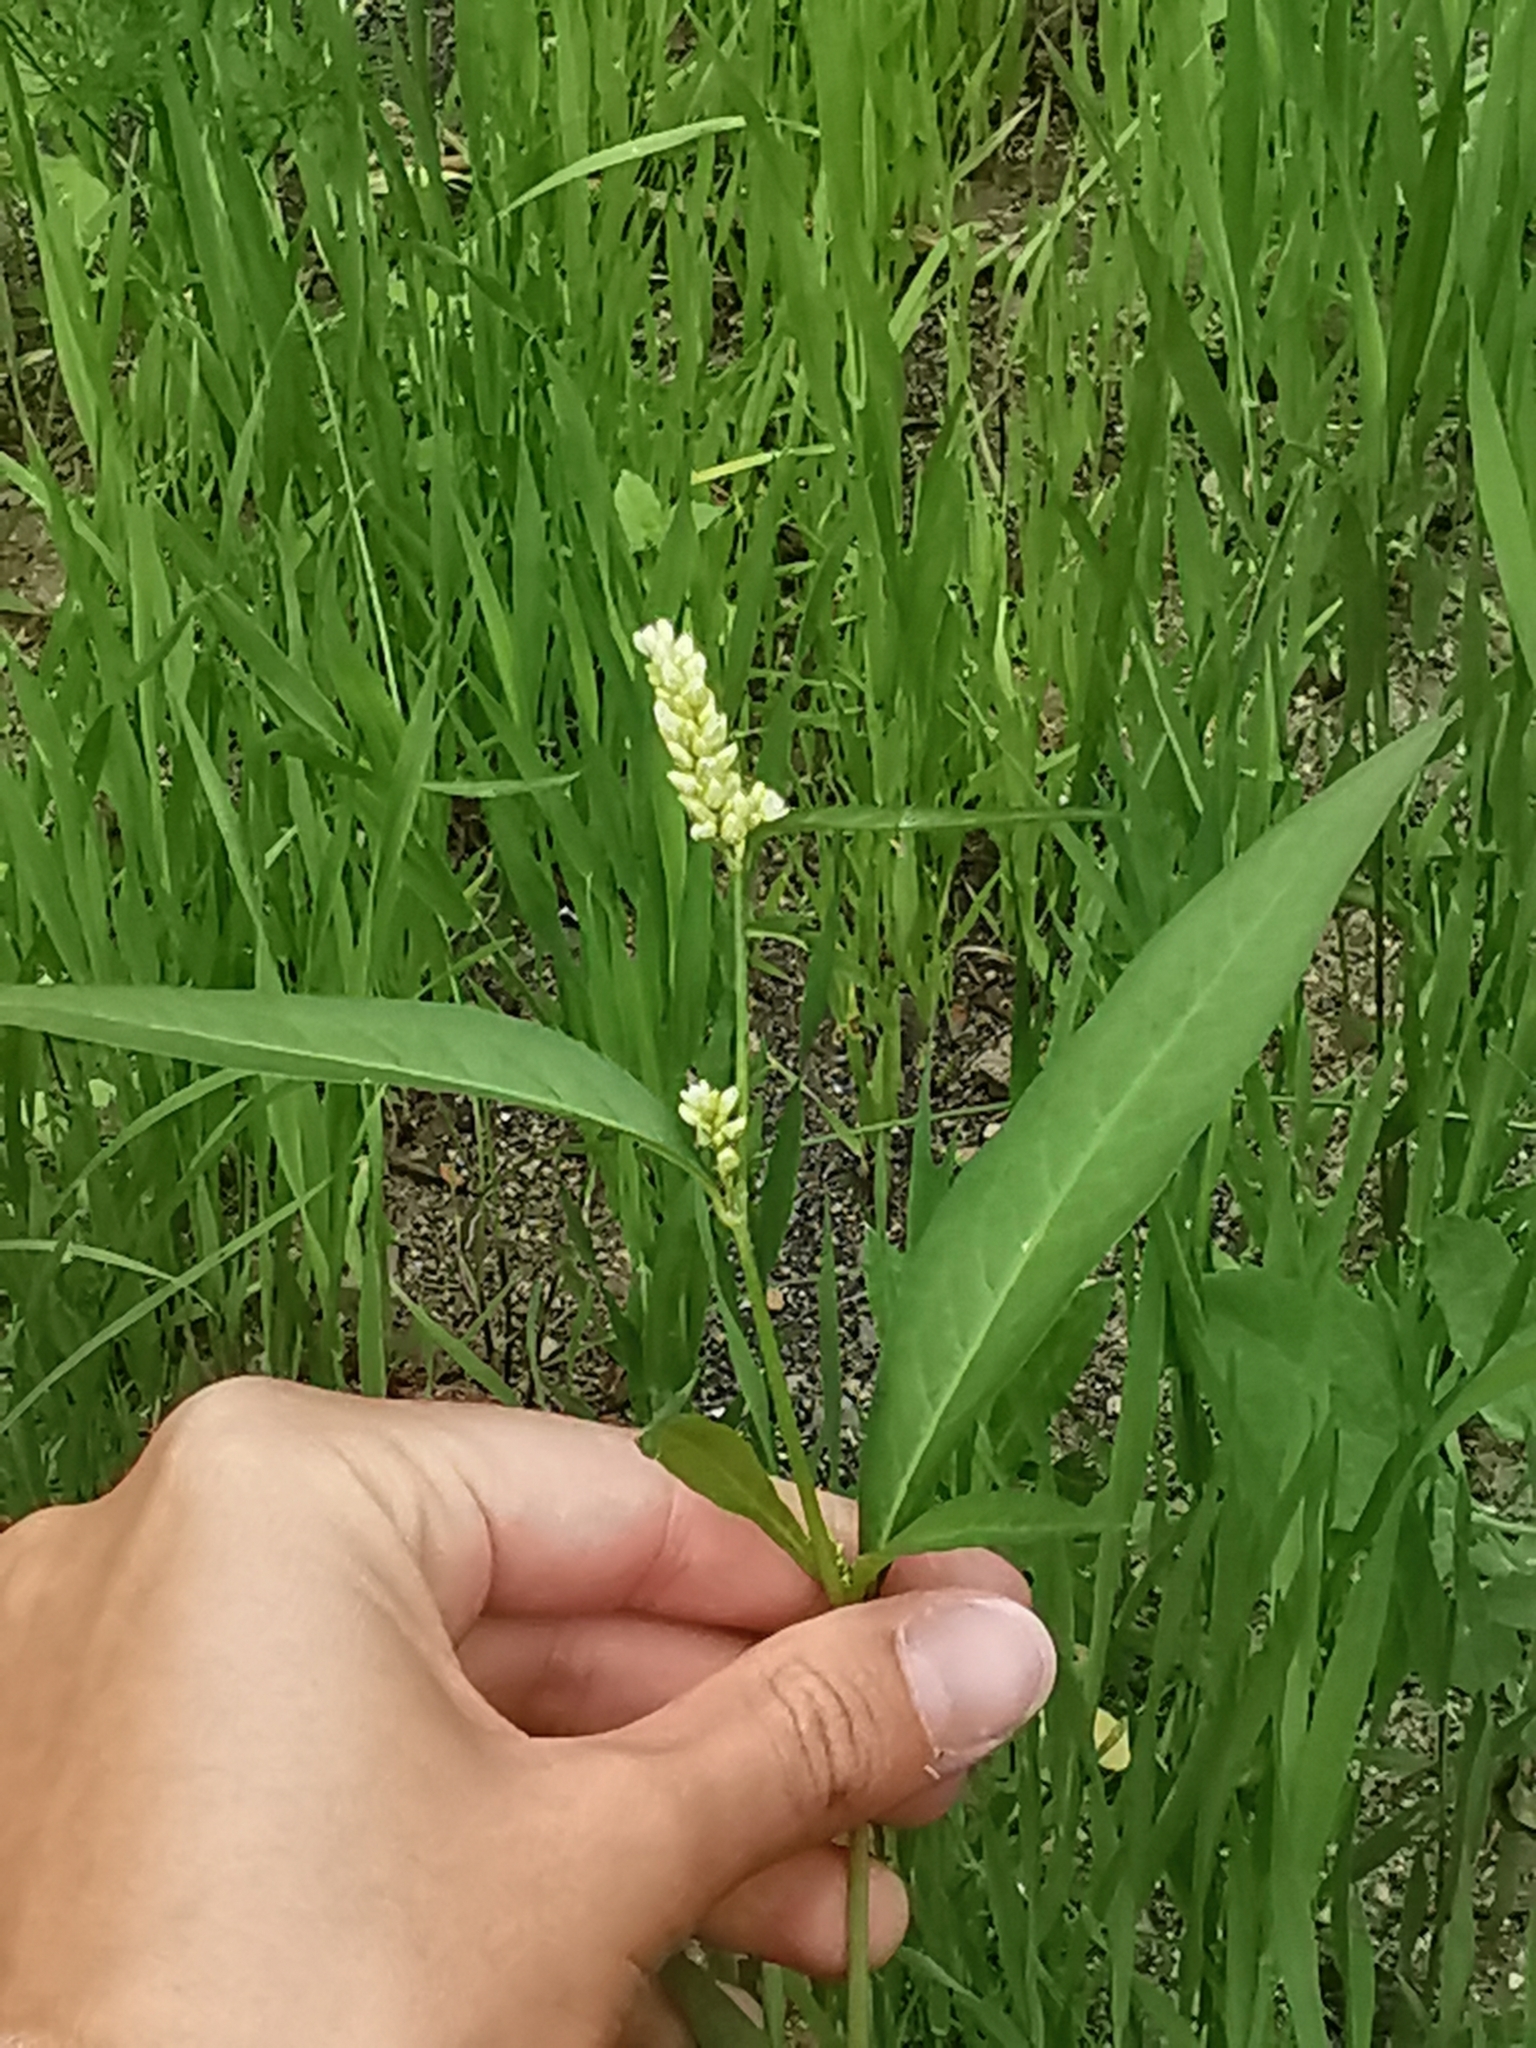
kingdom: Plantae
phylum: Tracheophyta
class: Magnoliopsida
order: Caryophyllales
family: Polygonaceae
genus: Persicaria
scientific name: Persicaria lapathifolia
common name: Curlytop knotweed
